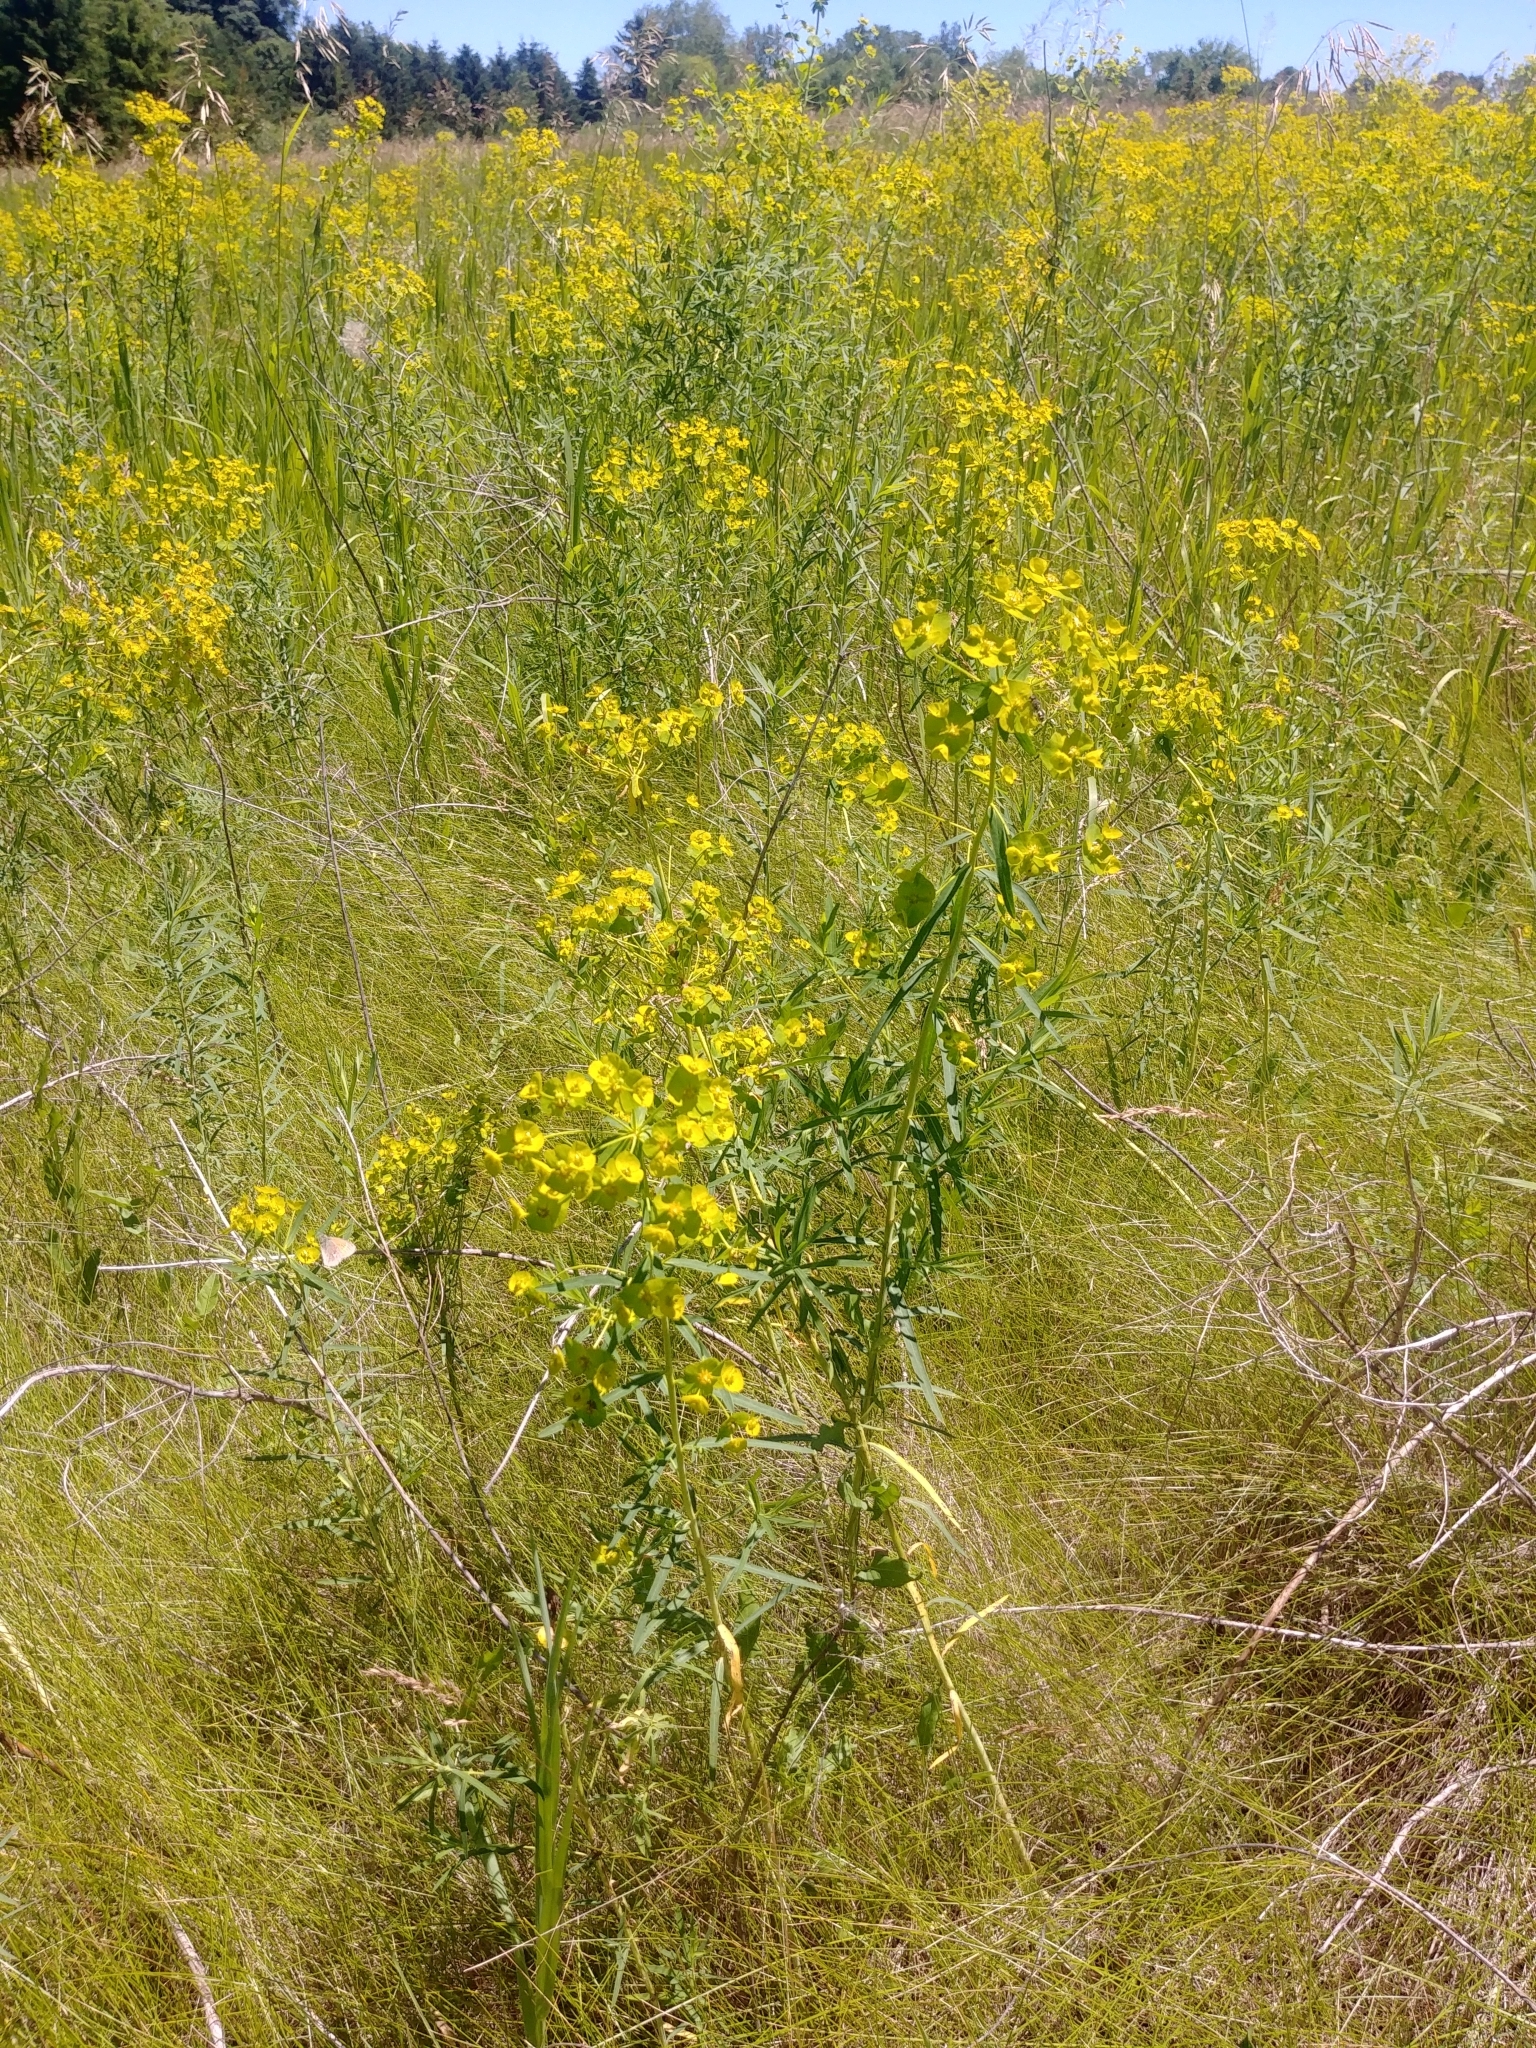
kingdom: Plantae
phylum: Tracheophyta
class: Magnoliopsida
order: Malpighiales
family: Euphorbiaceae
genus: Euphorbia
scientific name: Euphorbia virgata
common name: Leafy spurge
